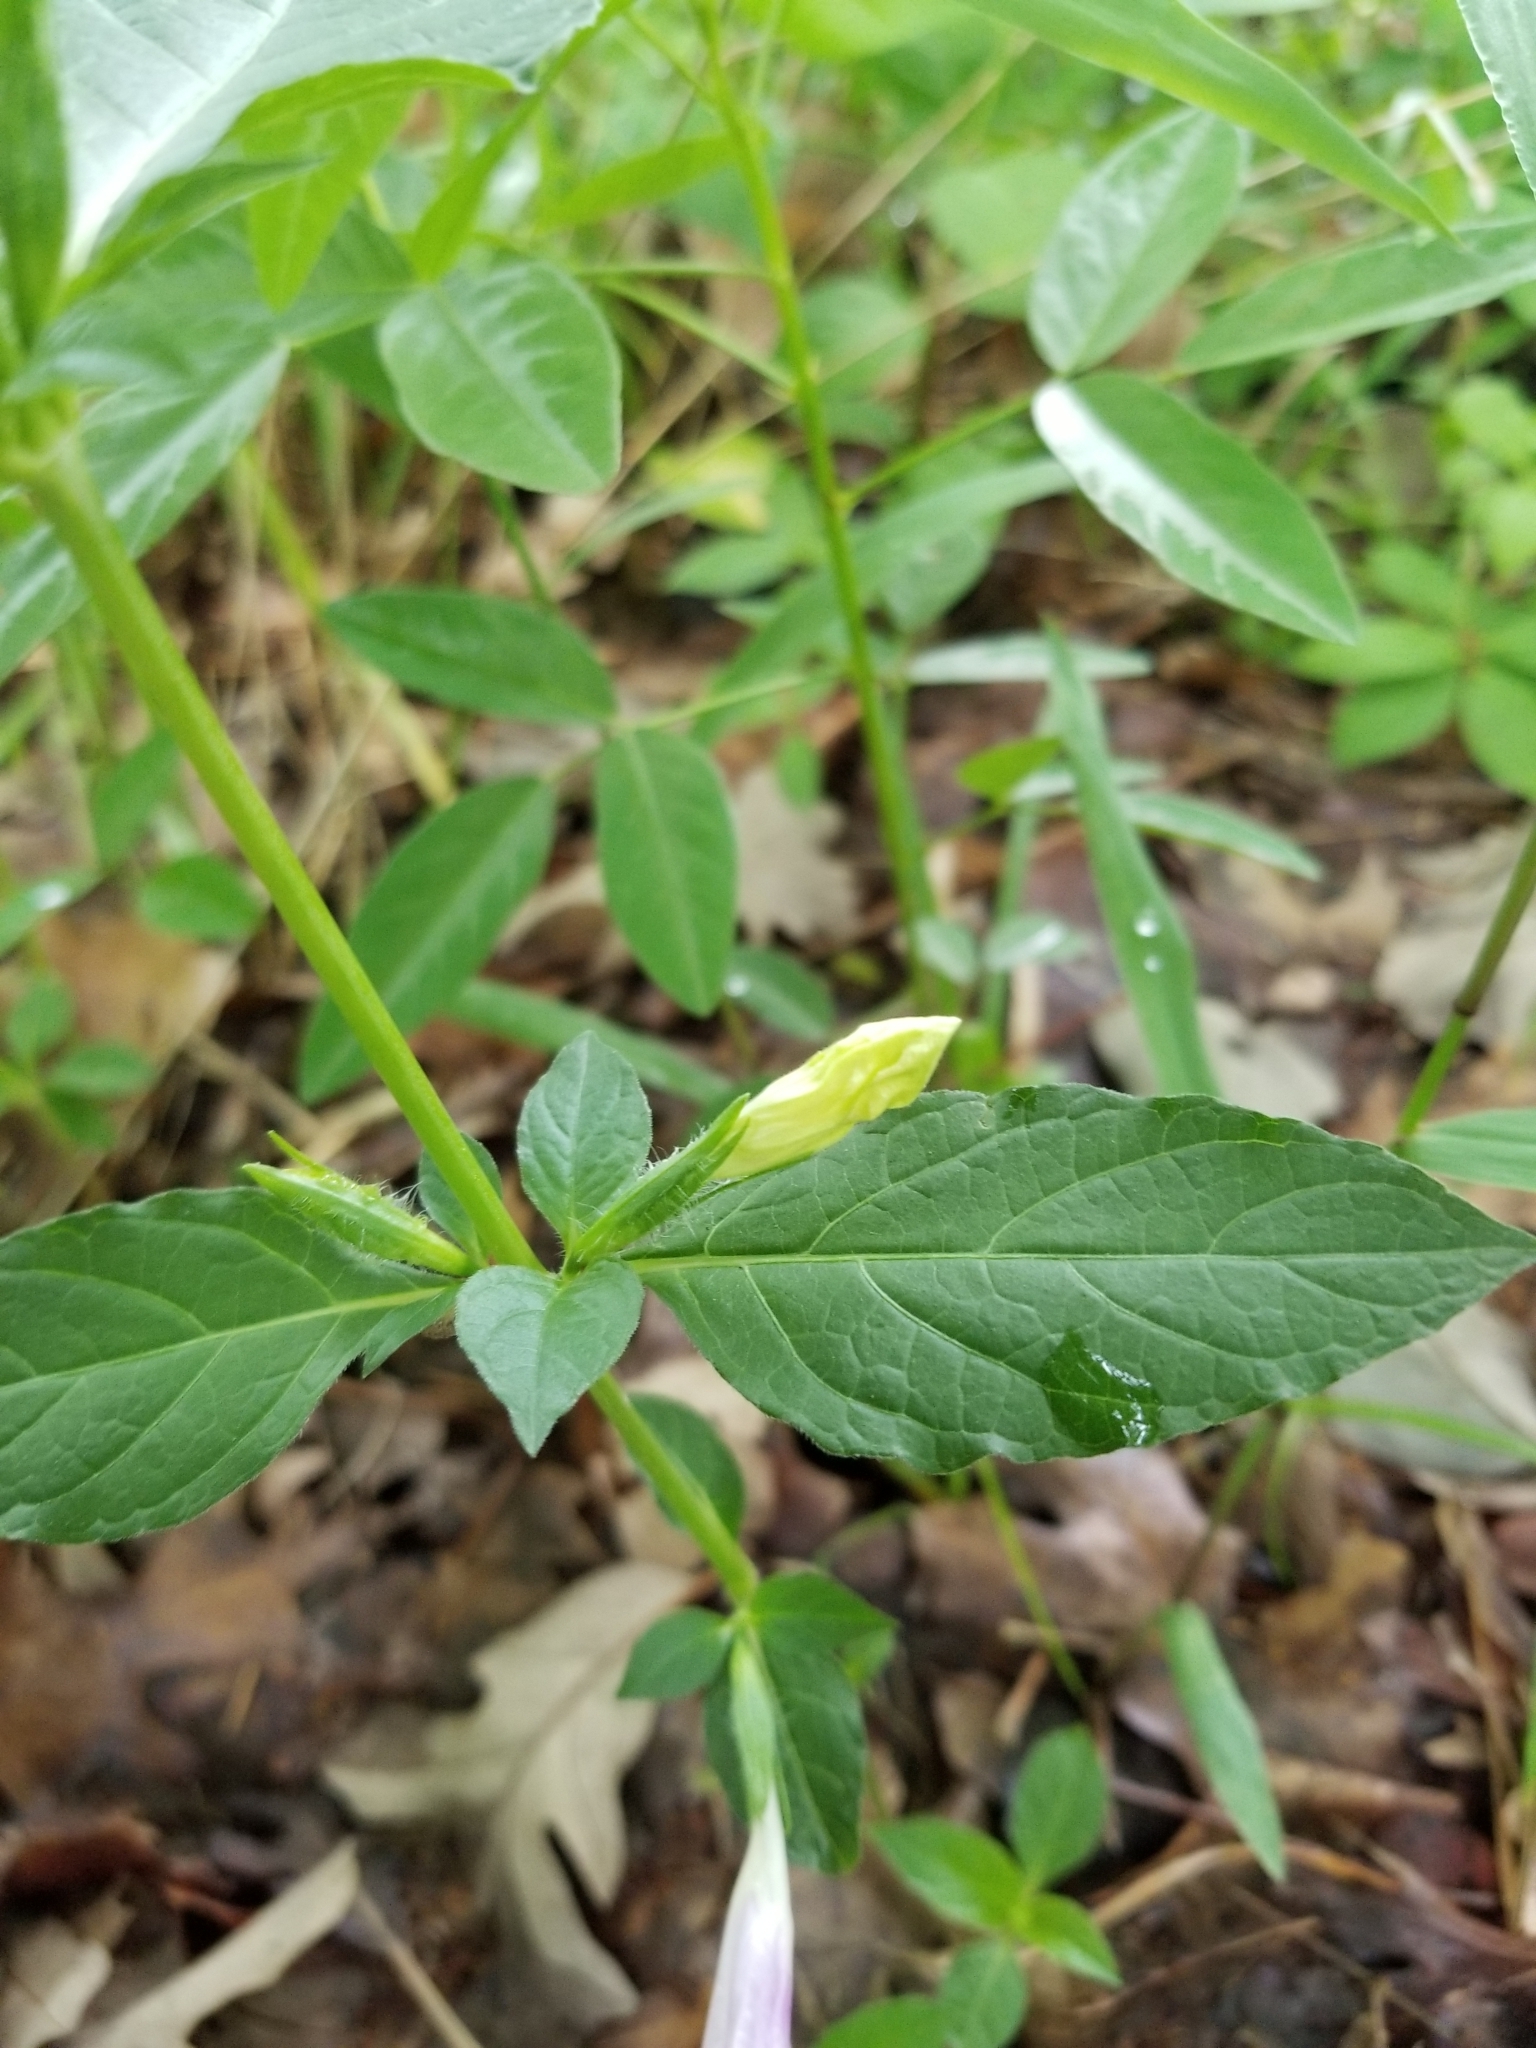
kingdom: Plantae
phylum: Tracheophyta
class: Magnoliopsida
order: Lamiales
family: Acanthaceae
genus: Ruellia
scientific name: Ruellia strepens
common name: Limestone wild petunia
